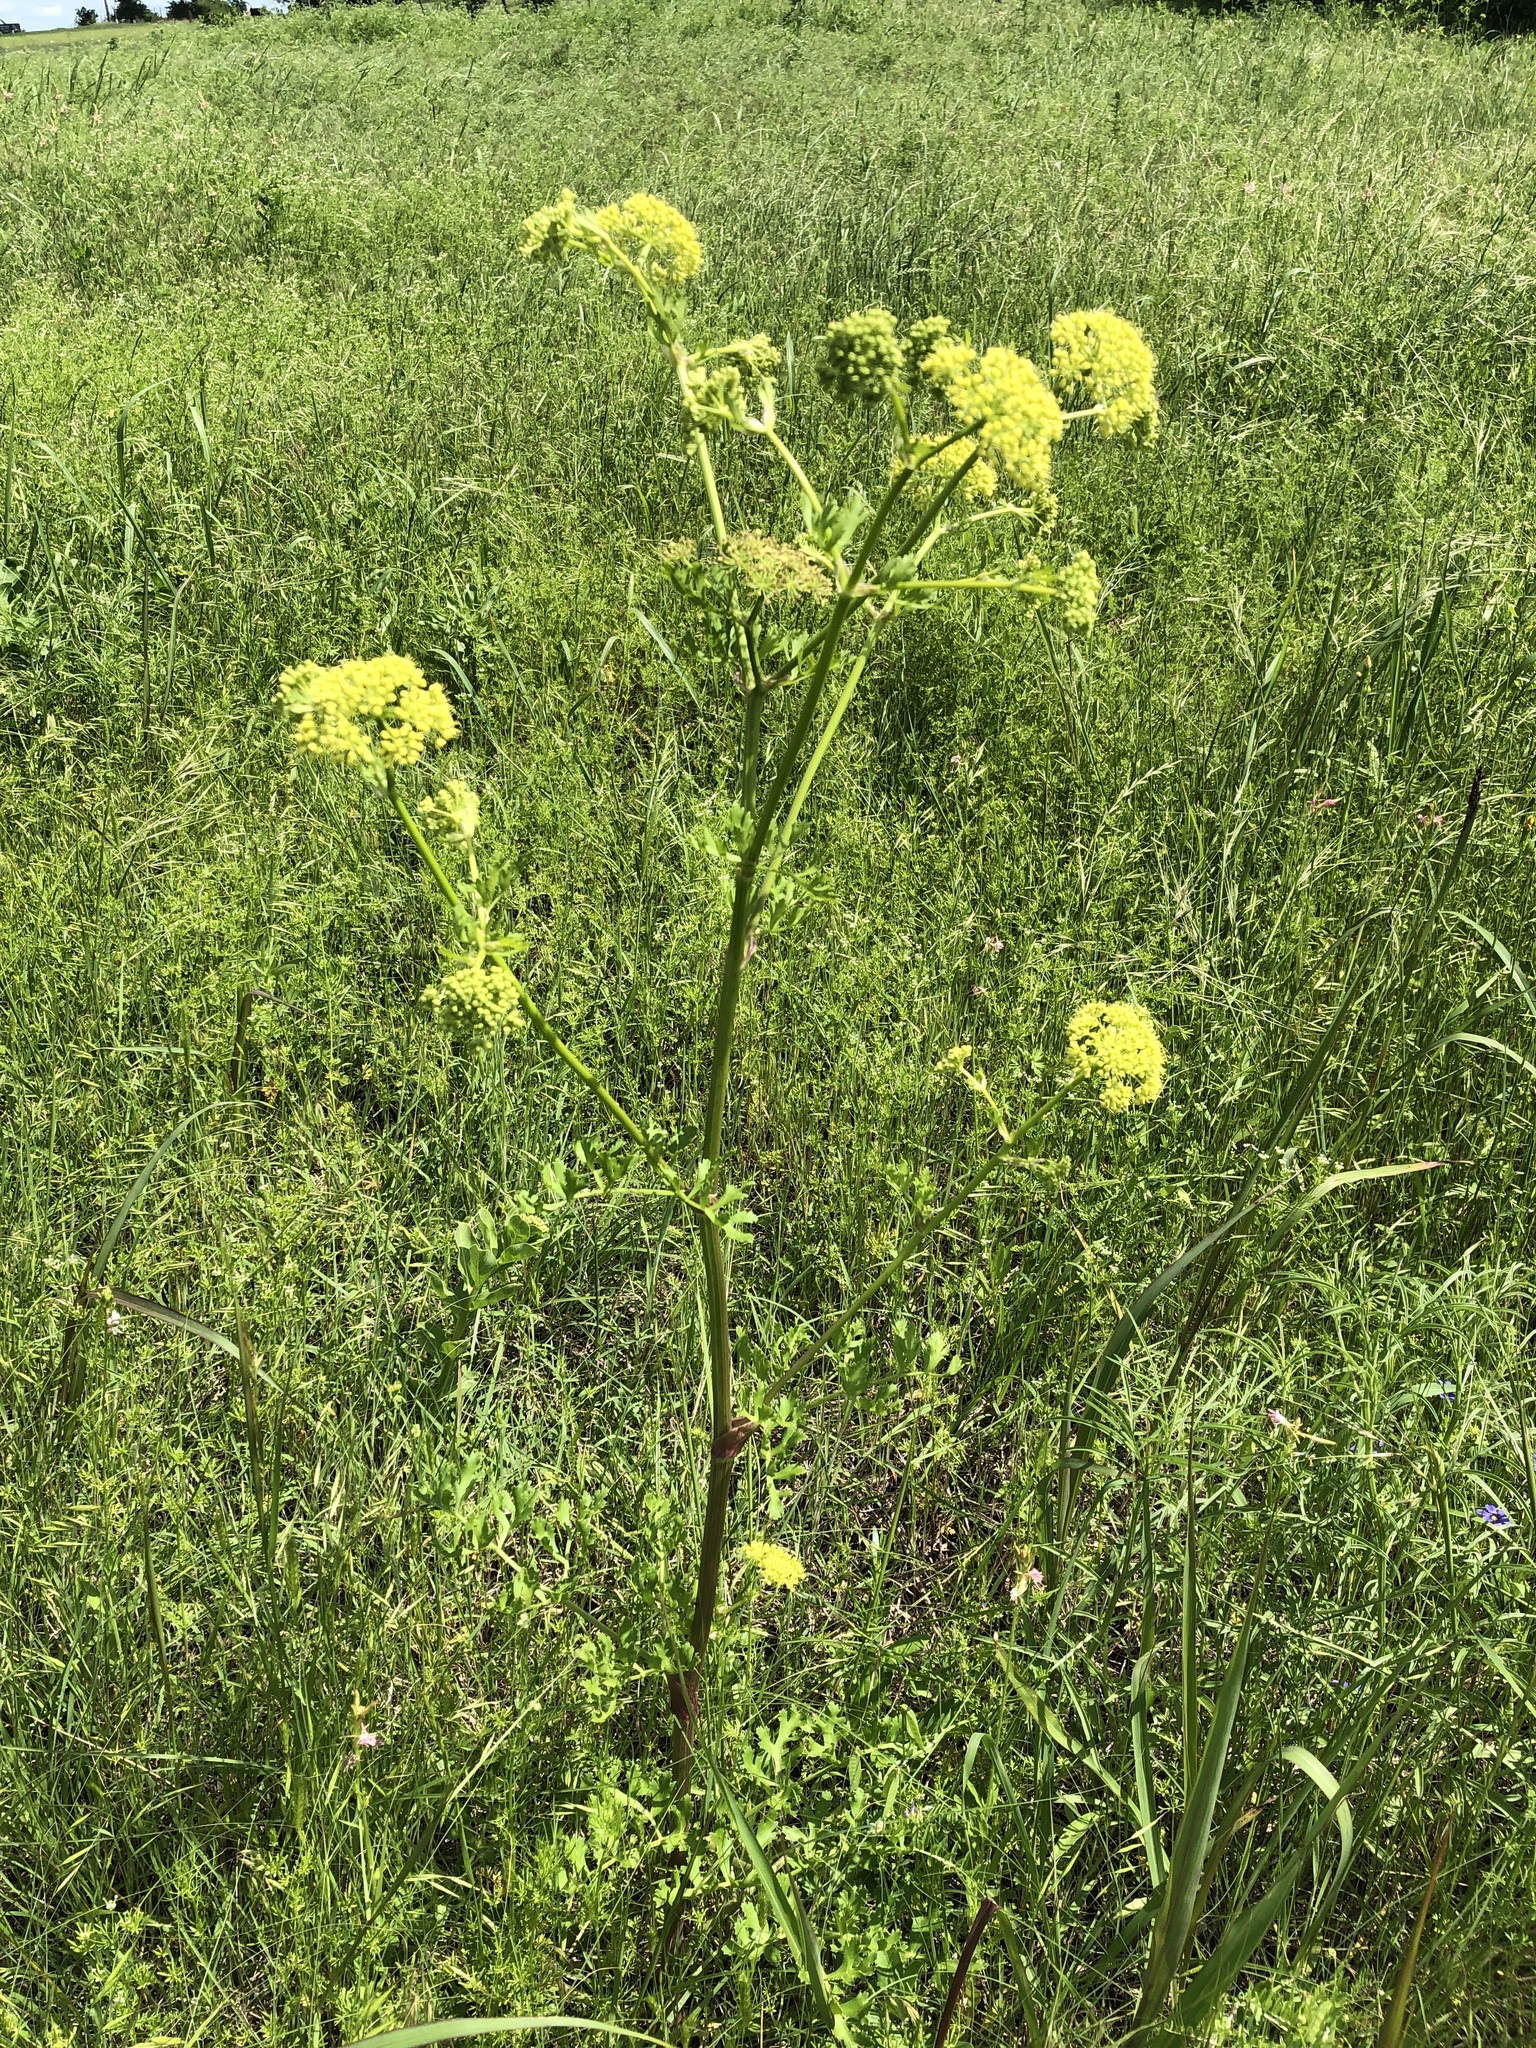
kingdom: Plantae
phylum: Tracheophyta
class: Magnoliopsida
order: Apiales
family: Apiaceae
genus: Polytaenia
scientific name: Polytaenia texana
